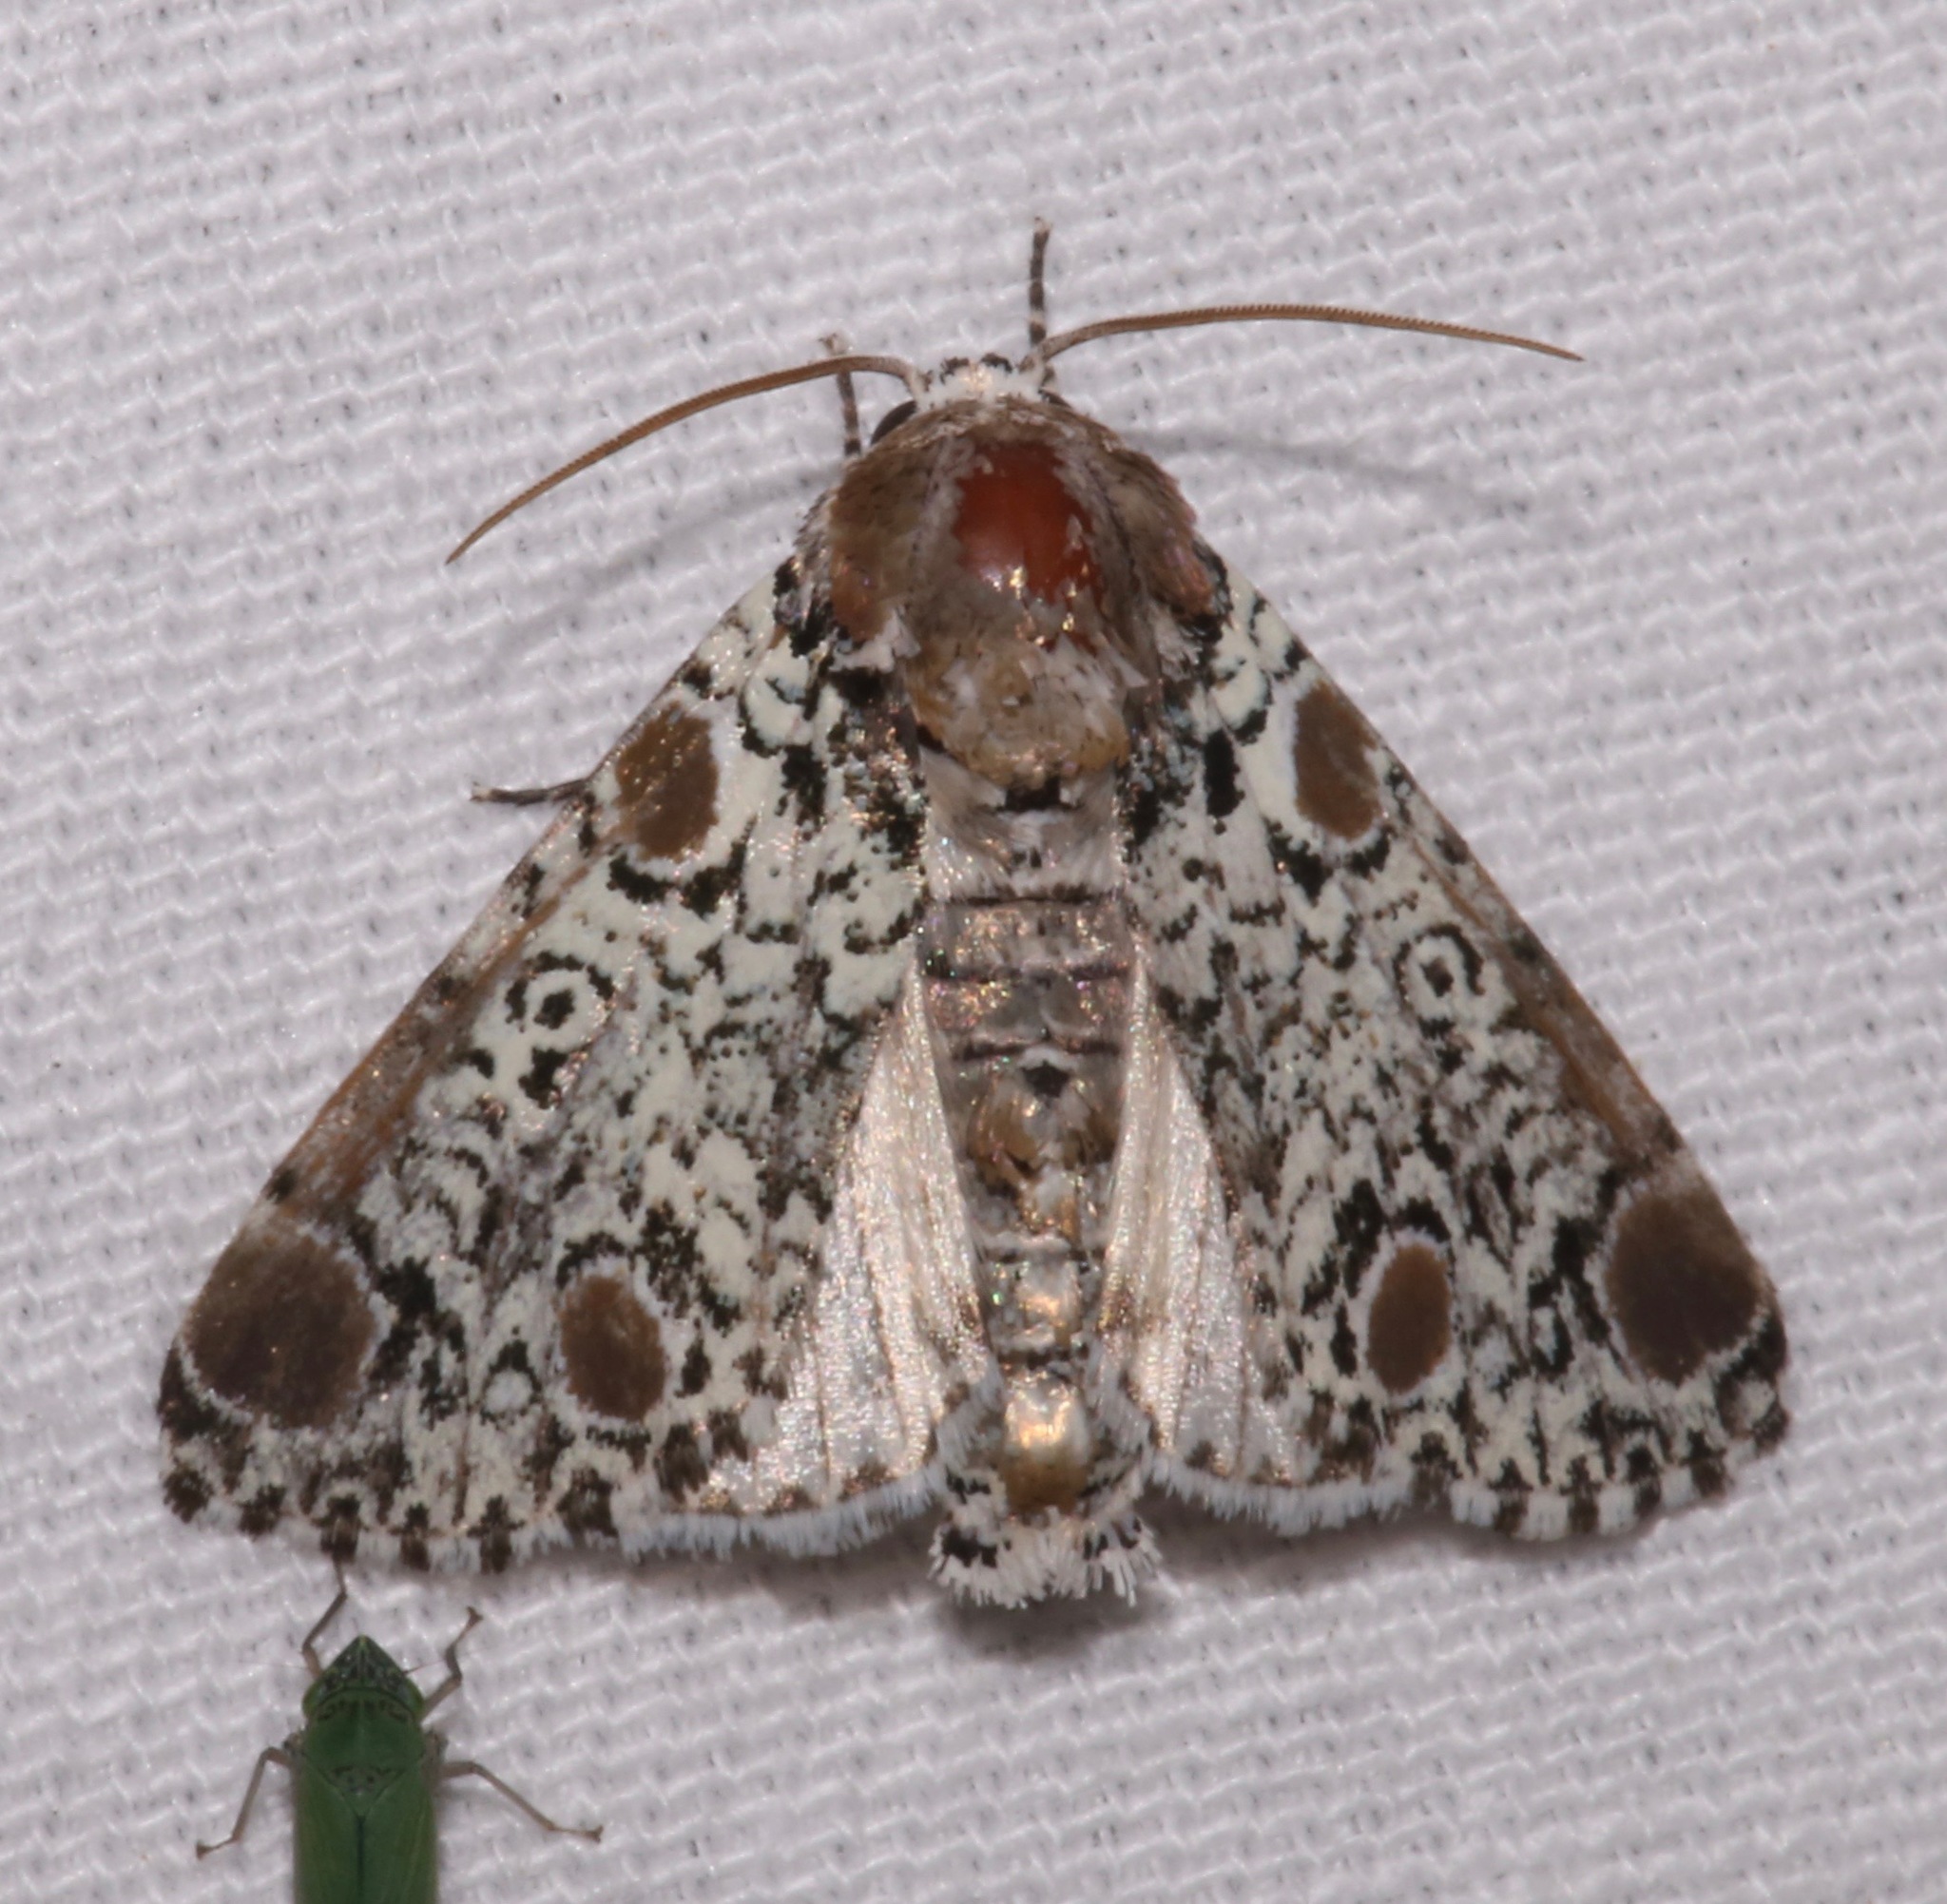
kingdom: Animalia
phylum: Arthropoda
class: Insecta
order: Lepidoptera
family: Noctuidae
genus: Harrisimemna
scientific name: Harrisimemna trisignata
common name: Harris threespot
